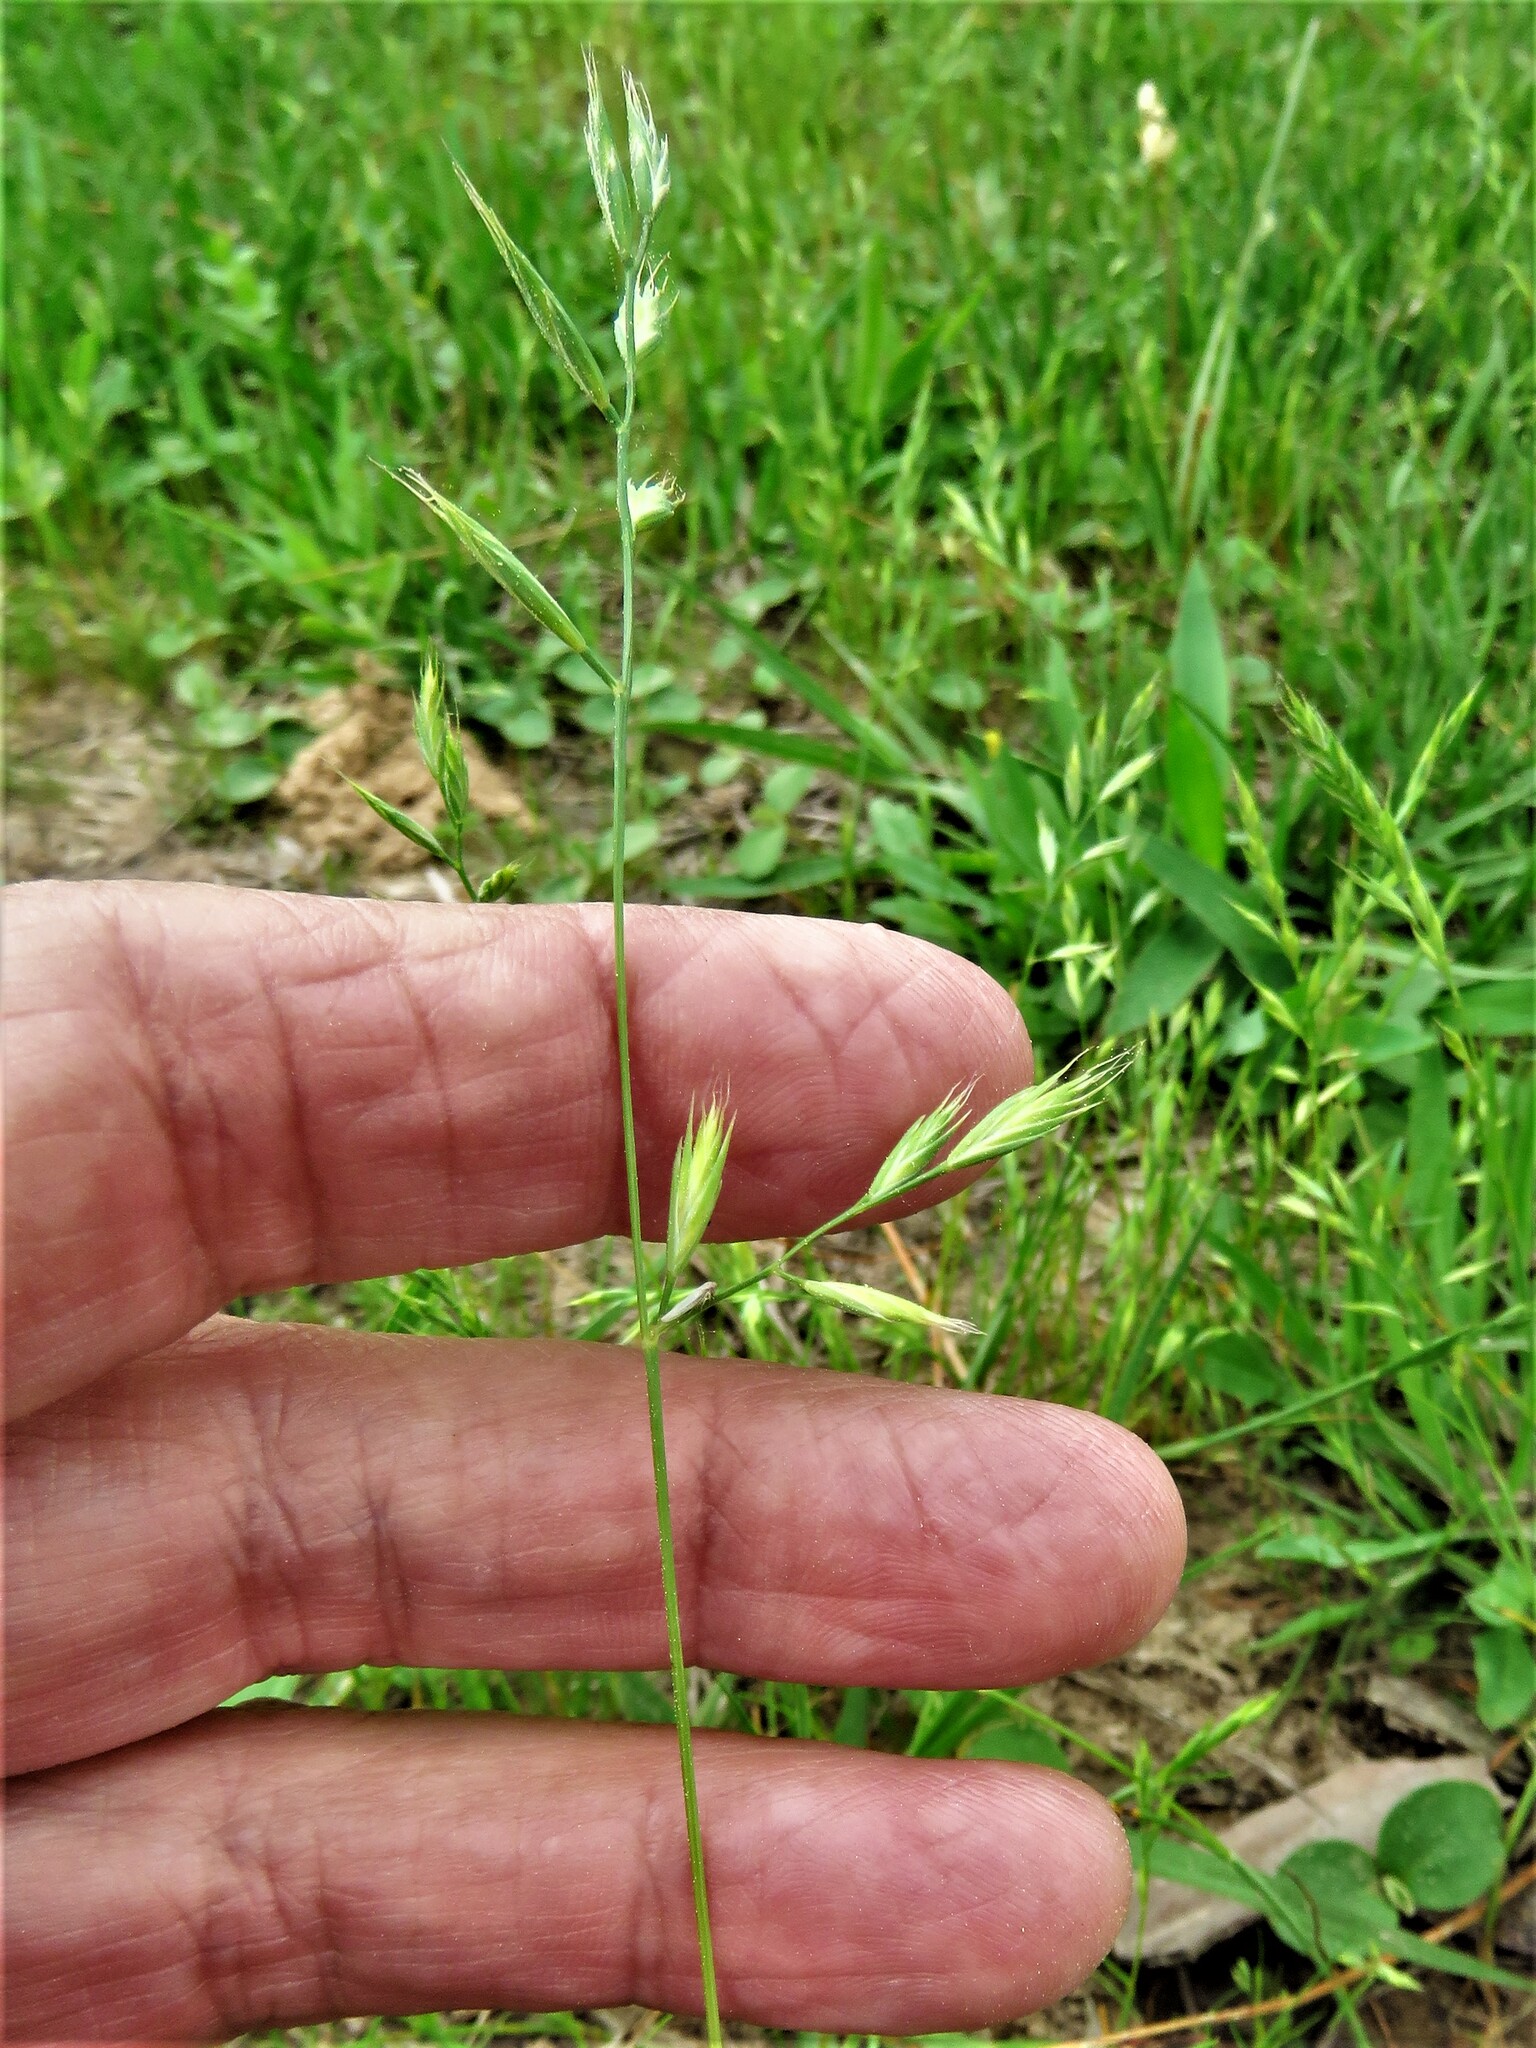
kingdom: Plantae
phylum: Tracheophyta
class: Liliopsida
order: Poales
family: Poaceae
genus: Festuca
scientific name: Festuca octoflora
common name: Sixweeks grass
